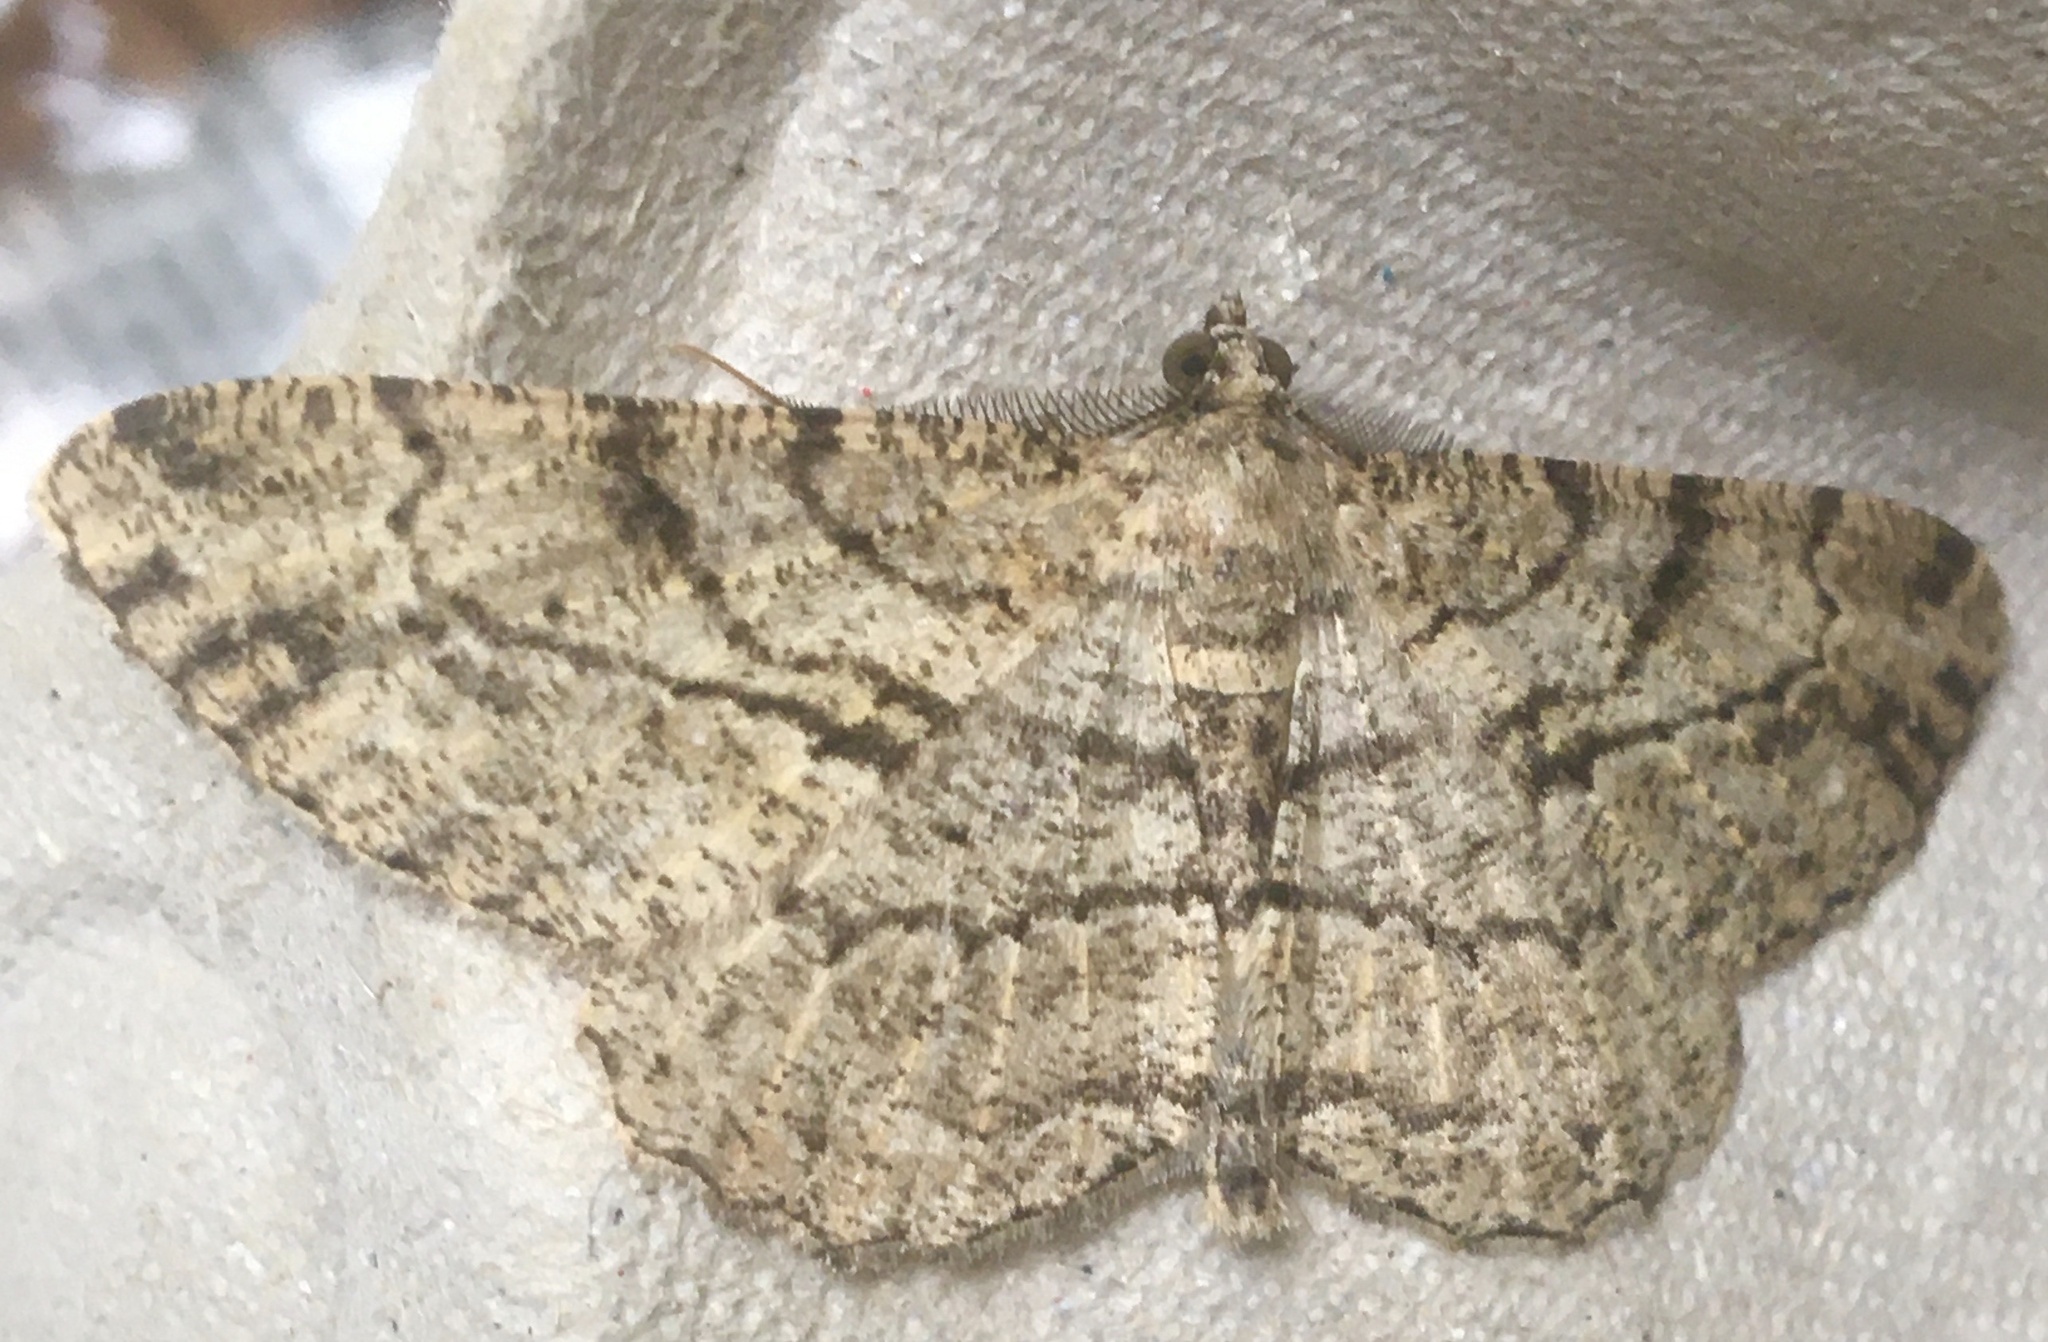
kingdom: Animalia
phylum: Arthropoda
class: Insecta
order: Lepidoptera
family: Geometridae
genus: Peribatodes
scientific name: Peribatodes rhomboidaria
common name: Willow beauty
